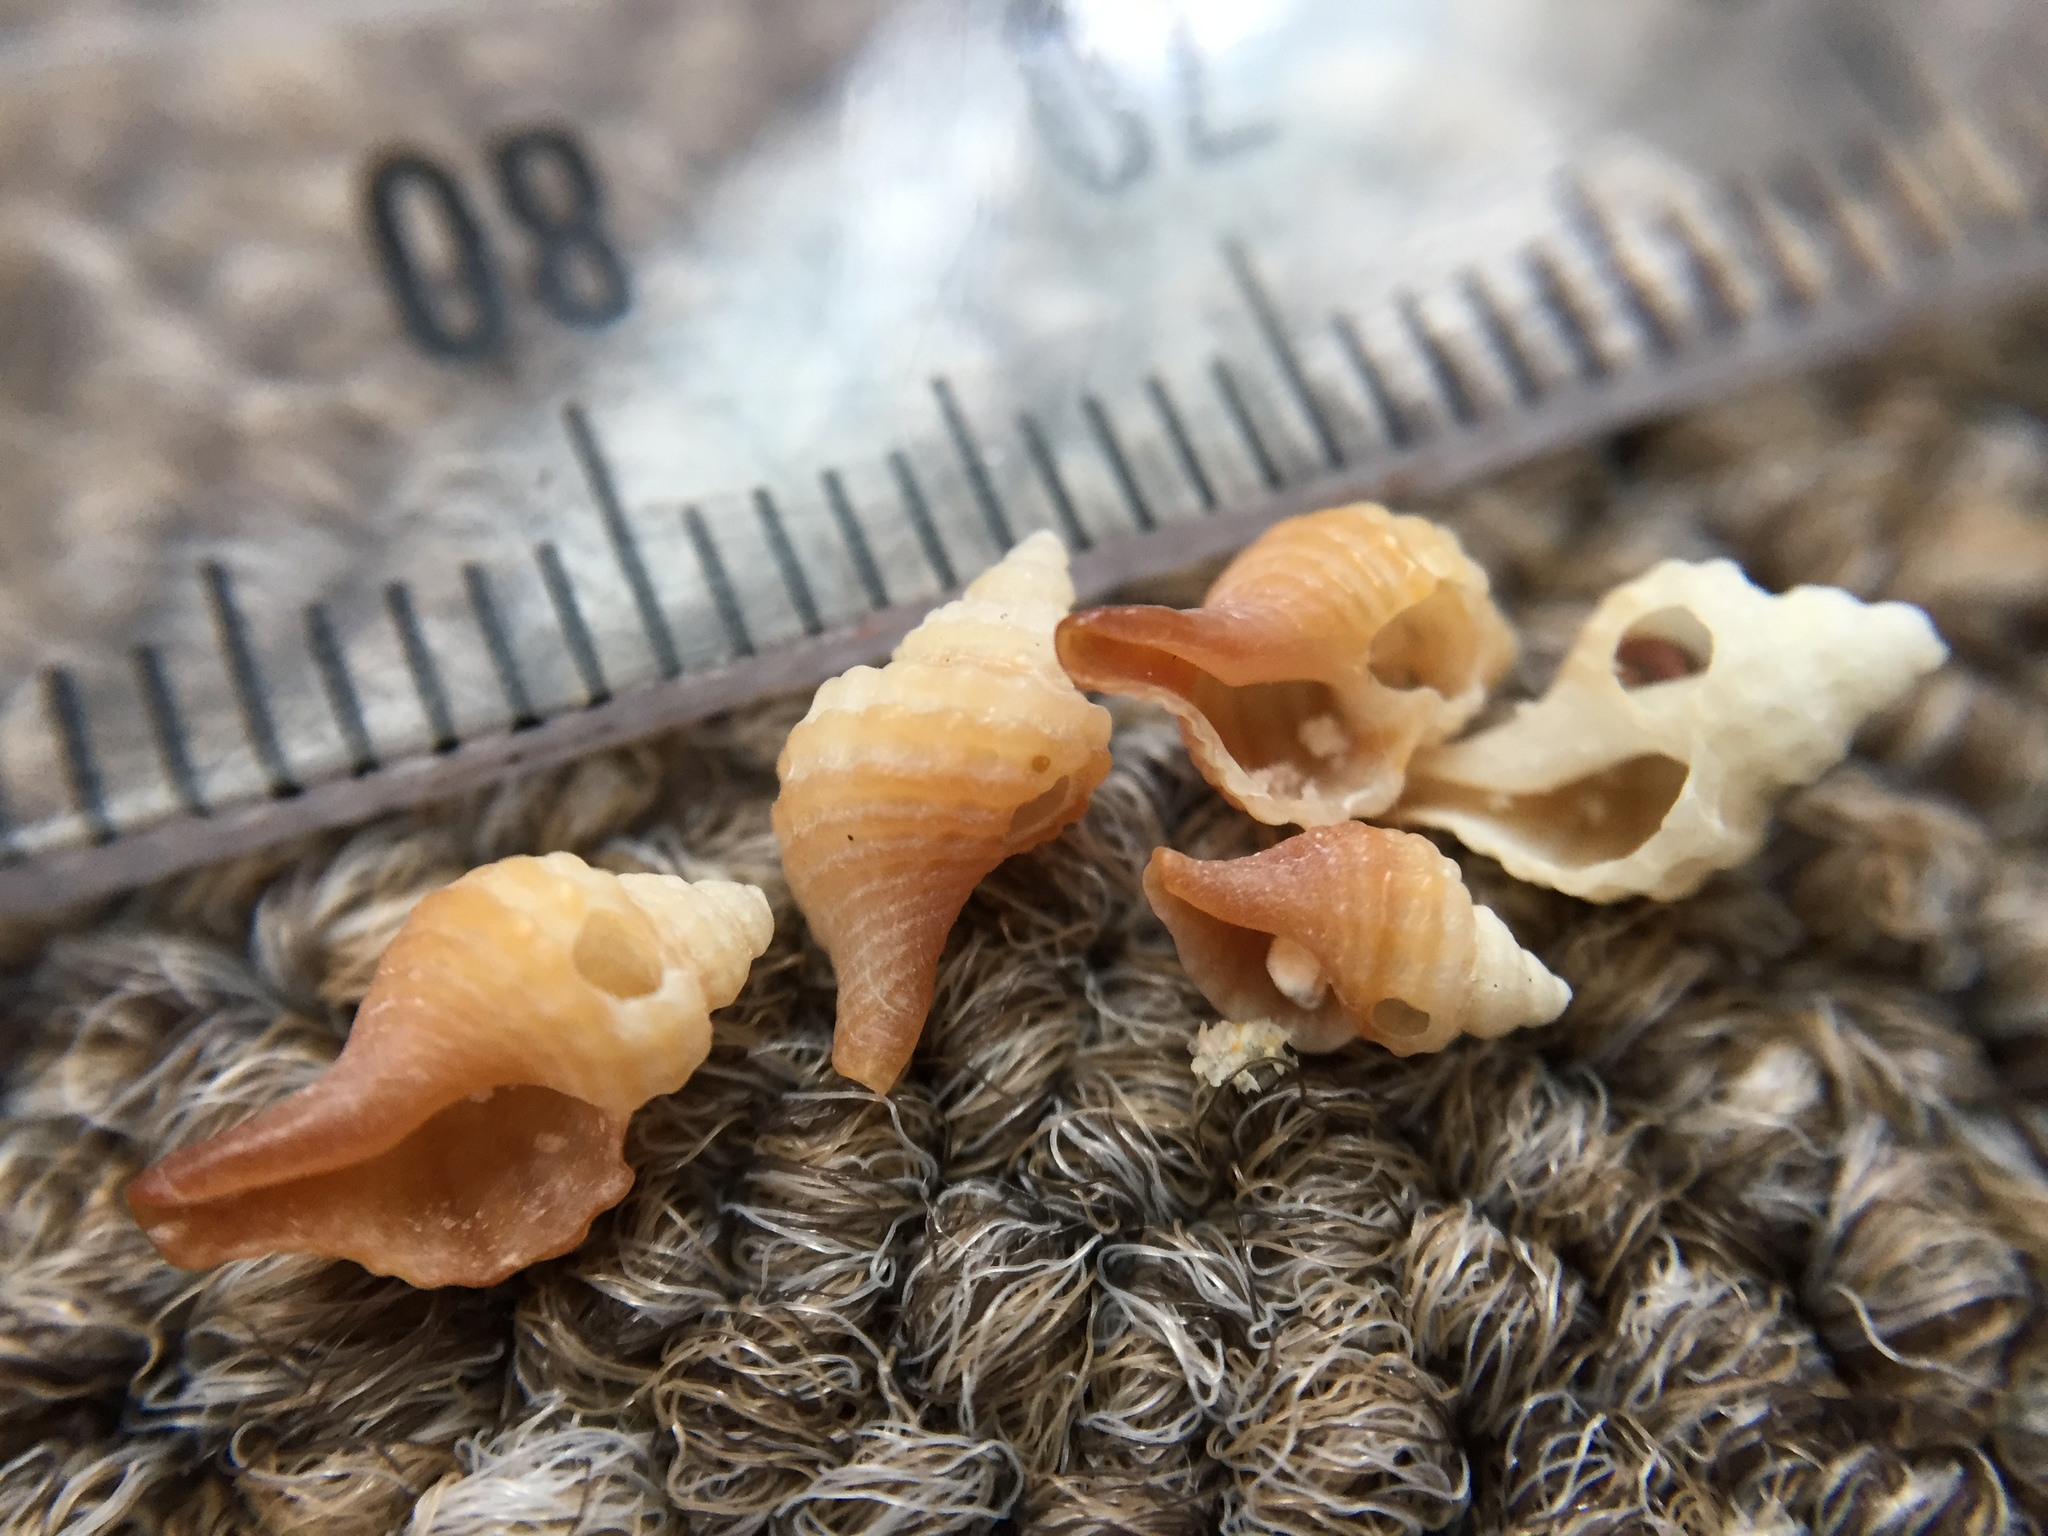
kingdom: Animalia
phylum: Mollusca
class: Gastropoda
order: Neogastropoda
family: Muricidae
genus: Zeatrophon
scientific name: Zeatrophon ambiguus
